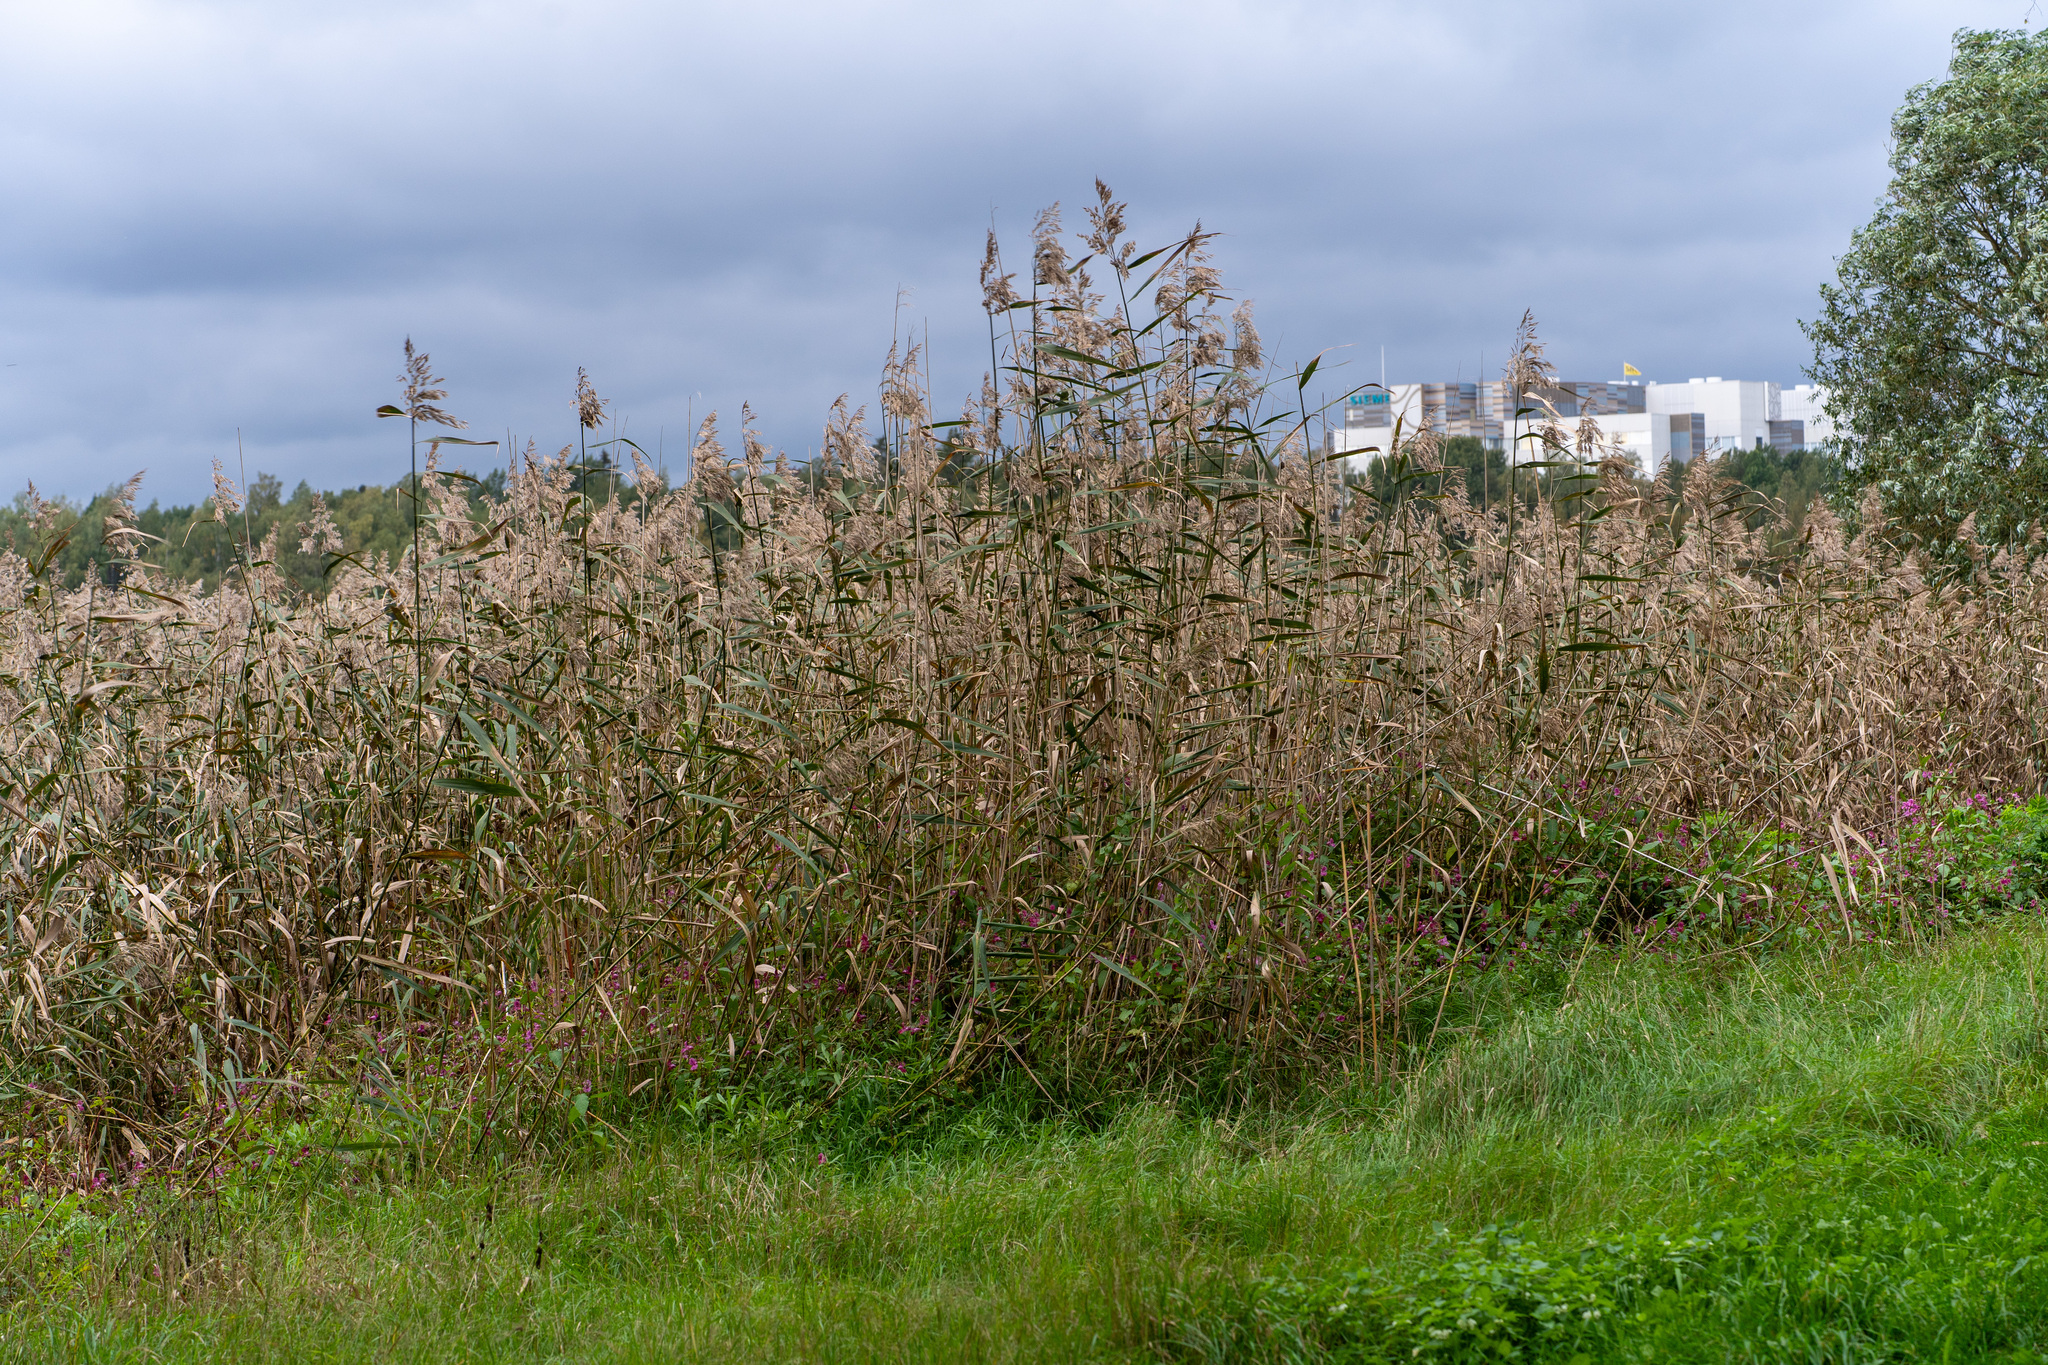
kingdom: Plantae
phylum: Tracheophyta
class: Liliopsida
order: Poales
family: Poaceae
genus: Phragmites
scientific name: Phragmites australis
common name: Common reed
